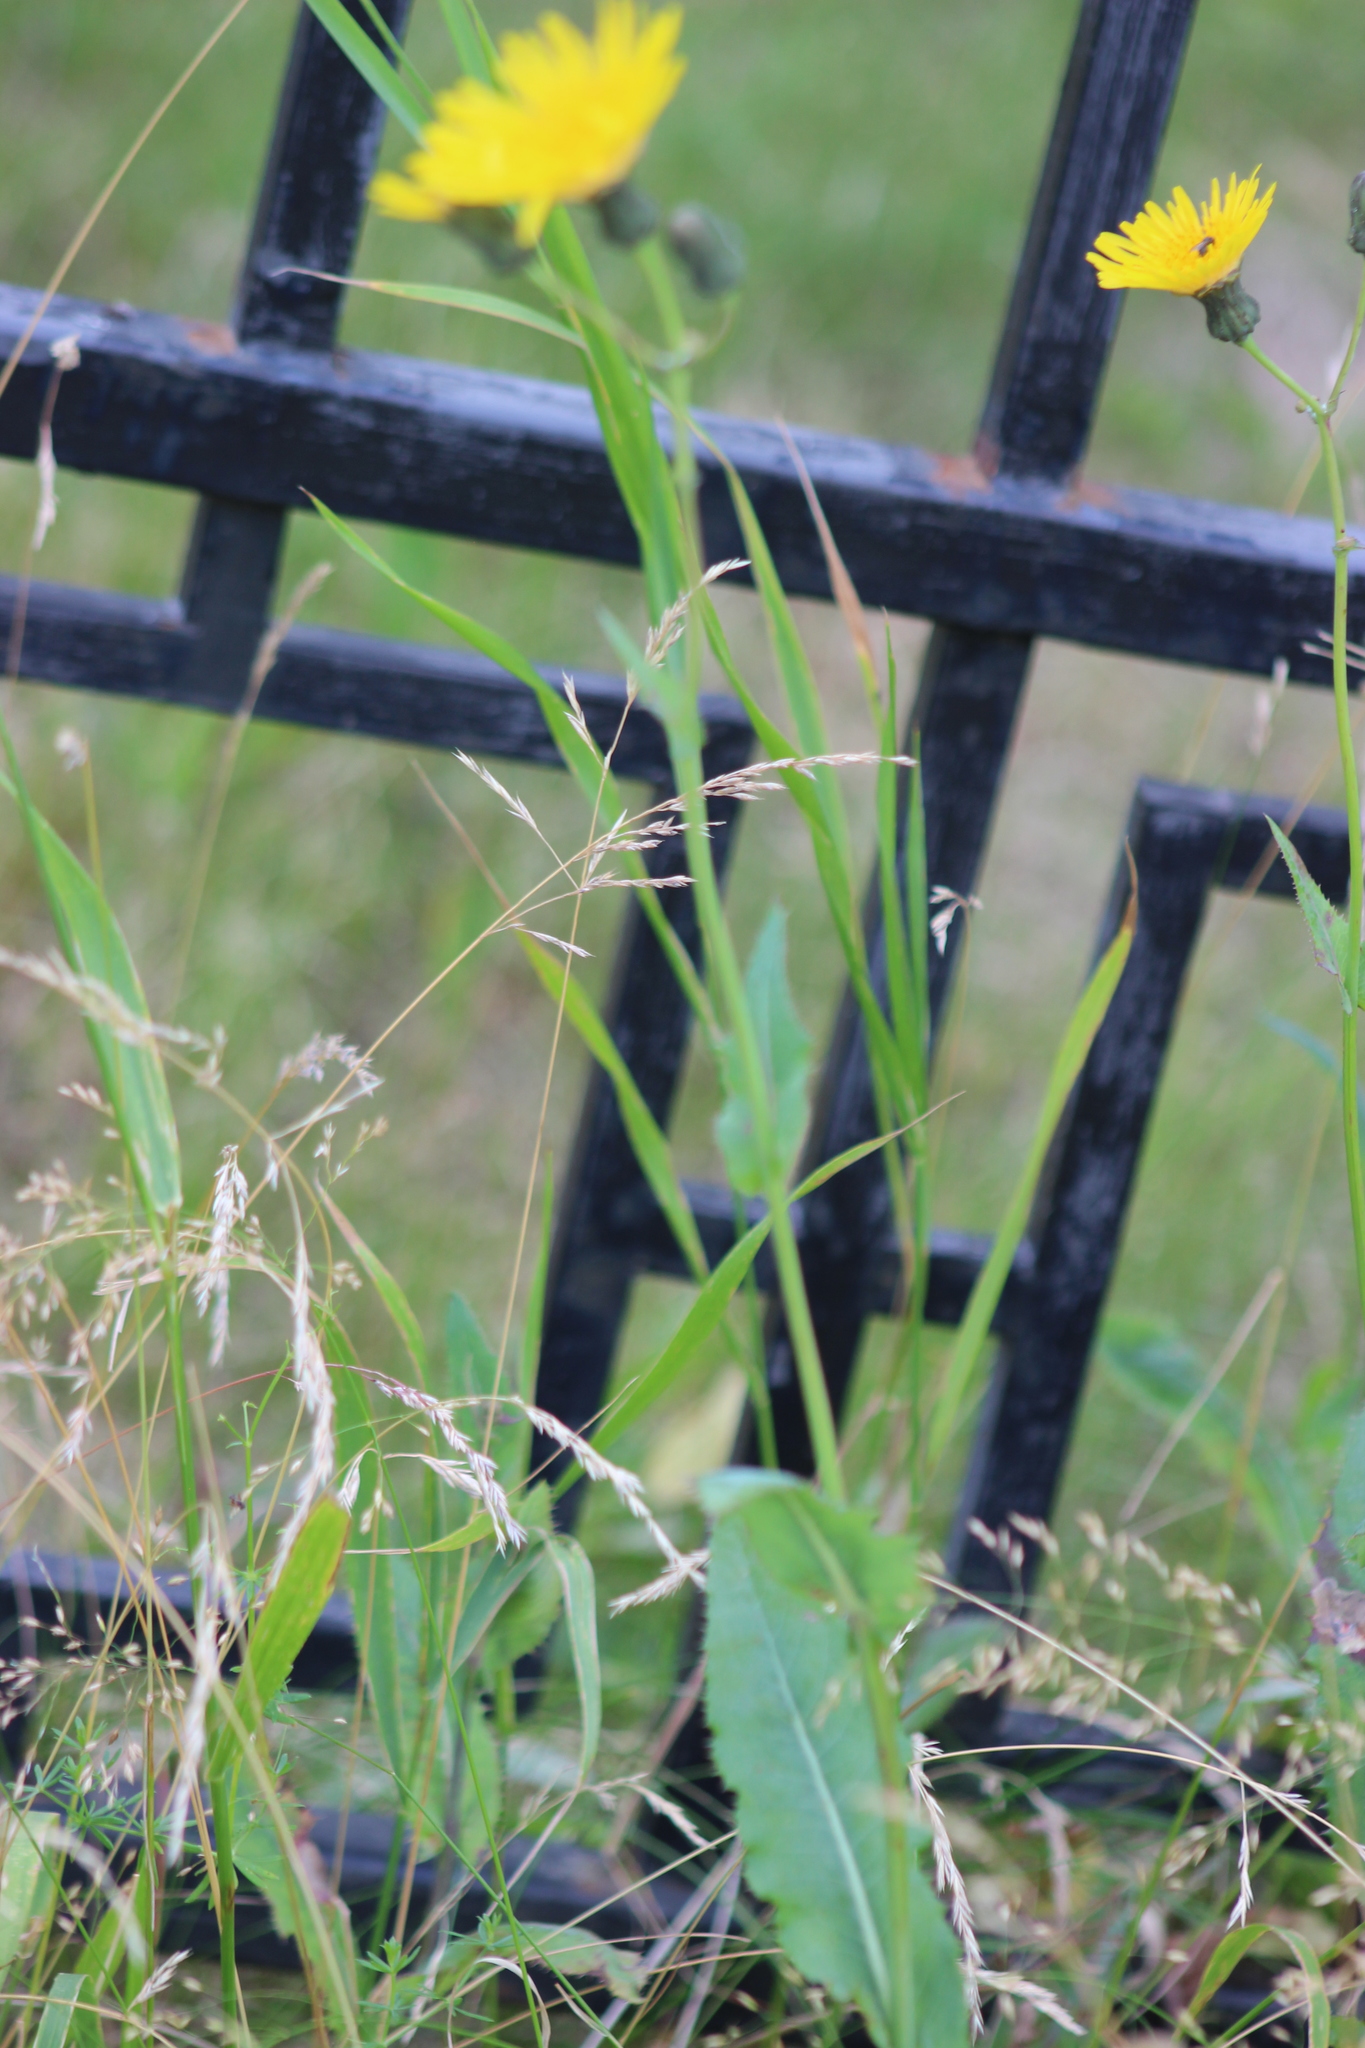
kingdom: Plantae
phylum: Tracheophyta
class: Magnoliopsida
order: Asterales
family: Asteraceae
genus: Sonchus
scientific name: Sonchus arvensis
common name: Perennial sow-thistle
